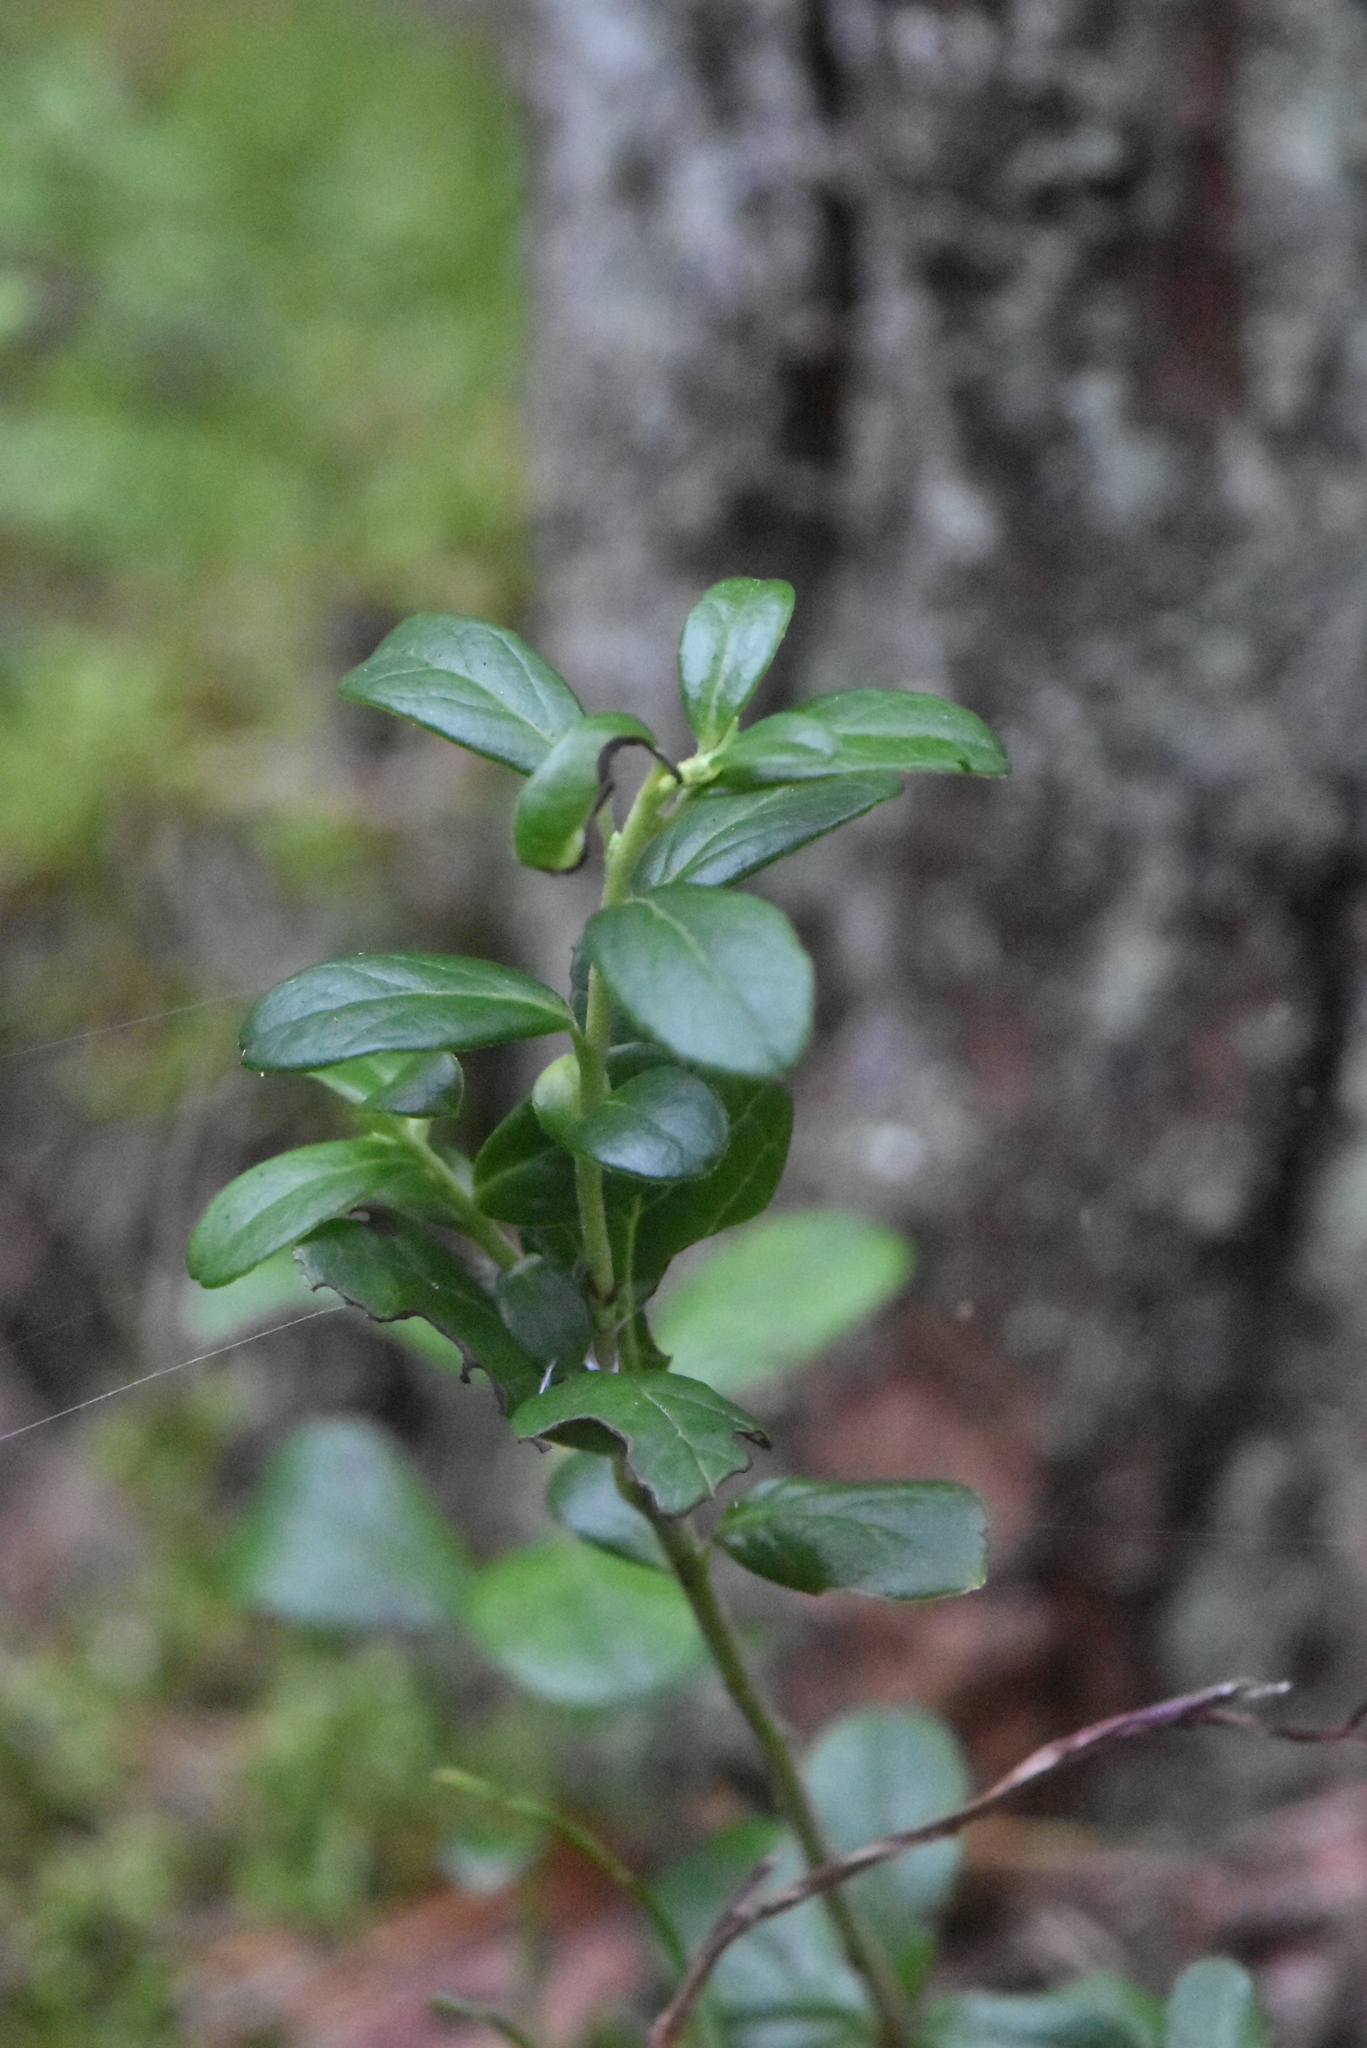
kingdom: Plantae
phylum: Tracheophyta
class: Magnoliopsida
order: Ericales
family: Ericaceae
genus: Vaccinium
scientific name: Vaccinium vitis-idaea
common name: Cowberry
